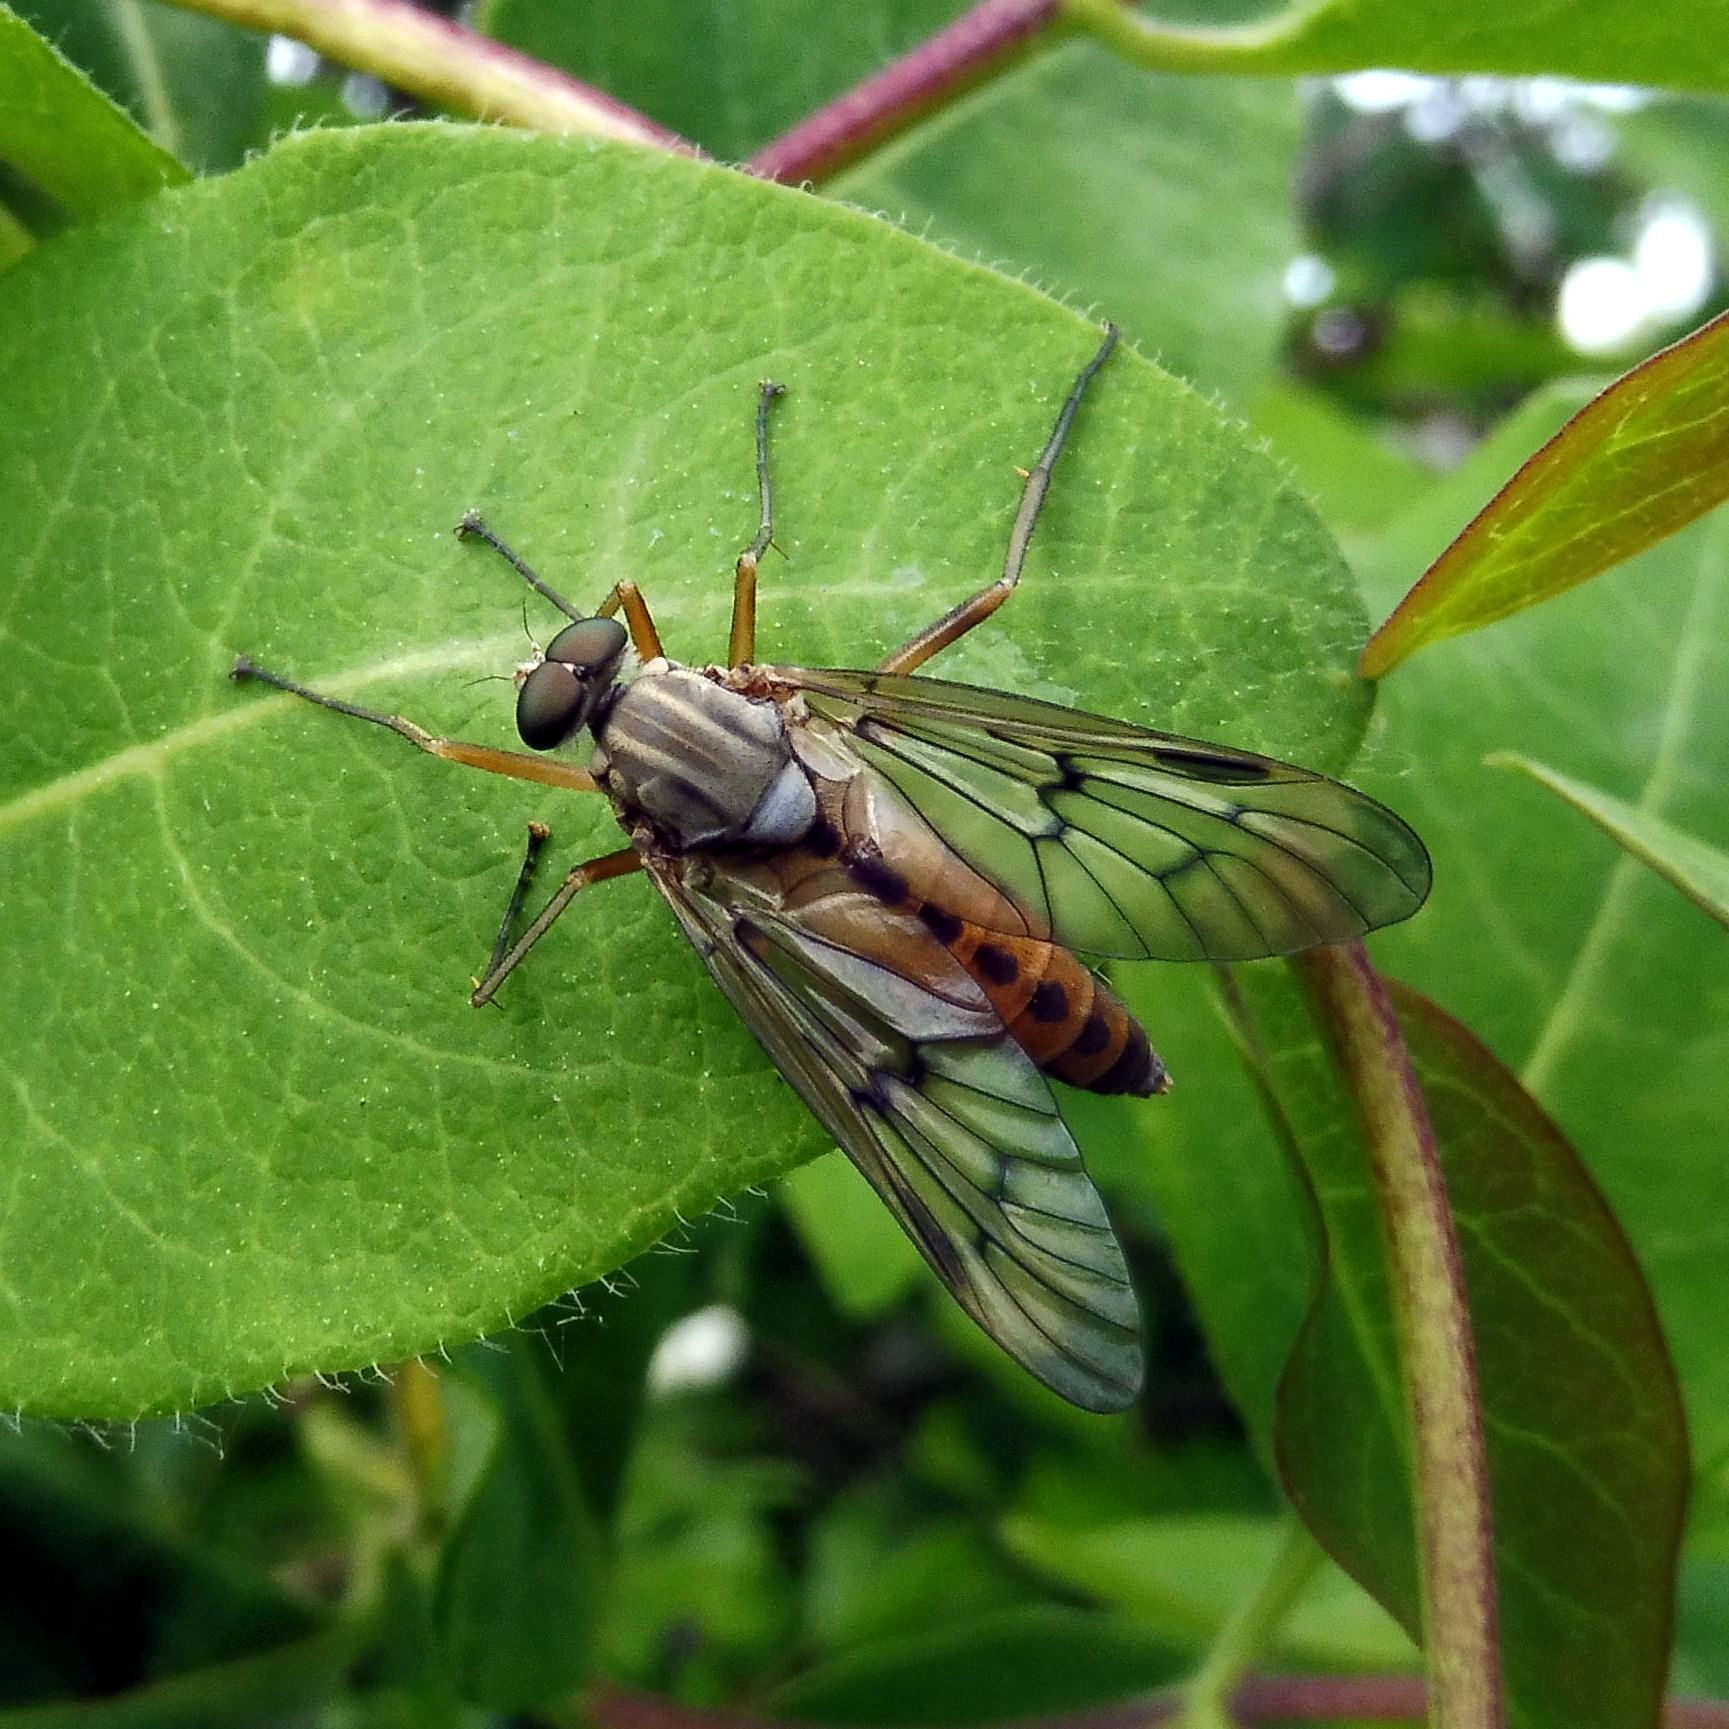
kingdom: Animalia
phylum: Arthropoda
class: Insecta
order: Diptera
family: Rhagionidae
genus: Rhagio
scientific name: Rhagio scolopacea
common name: Downlooker snipefly
